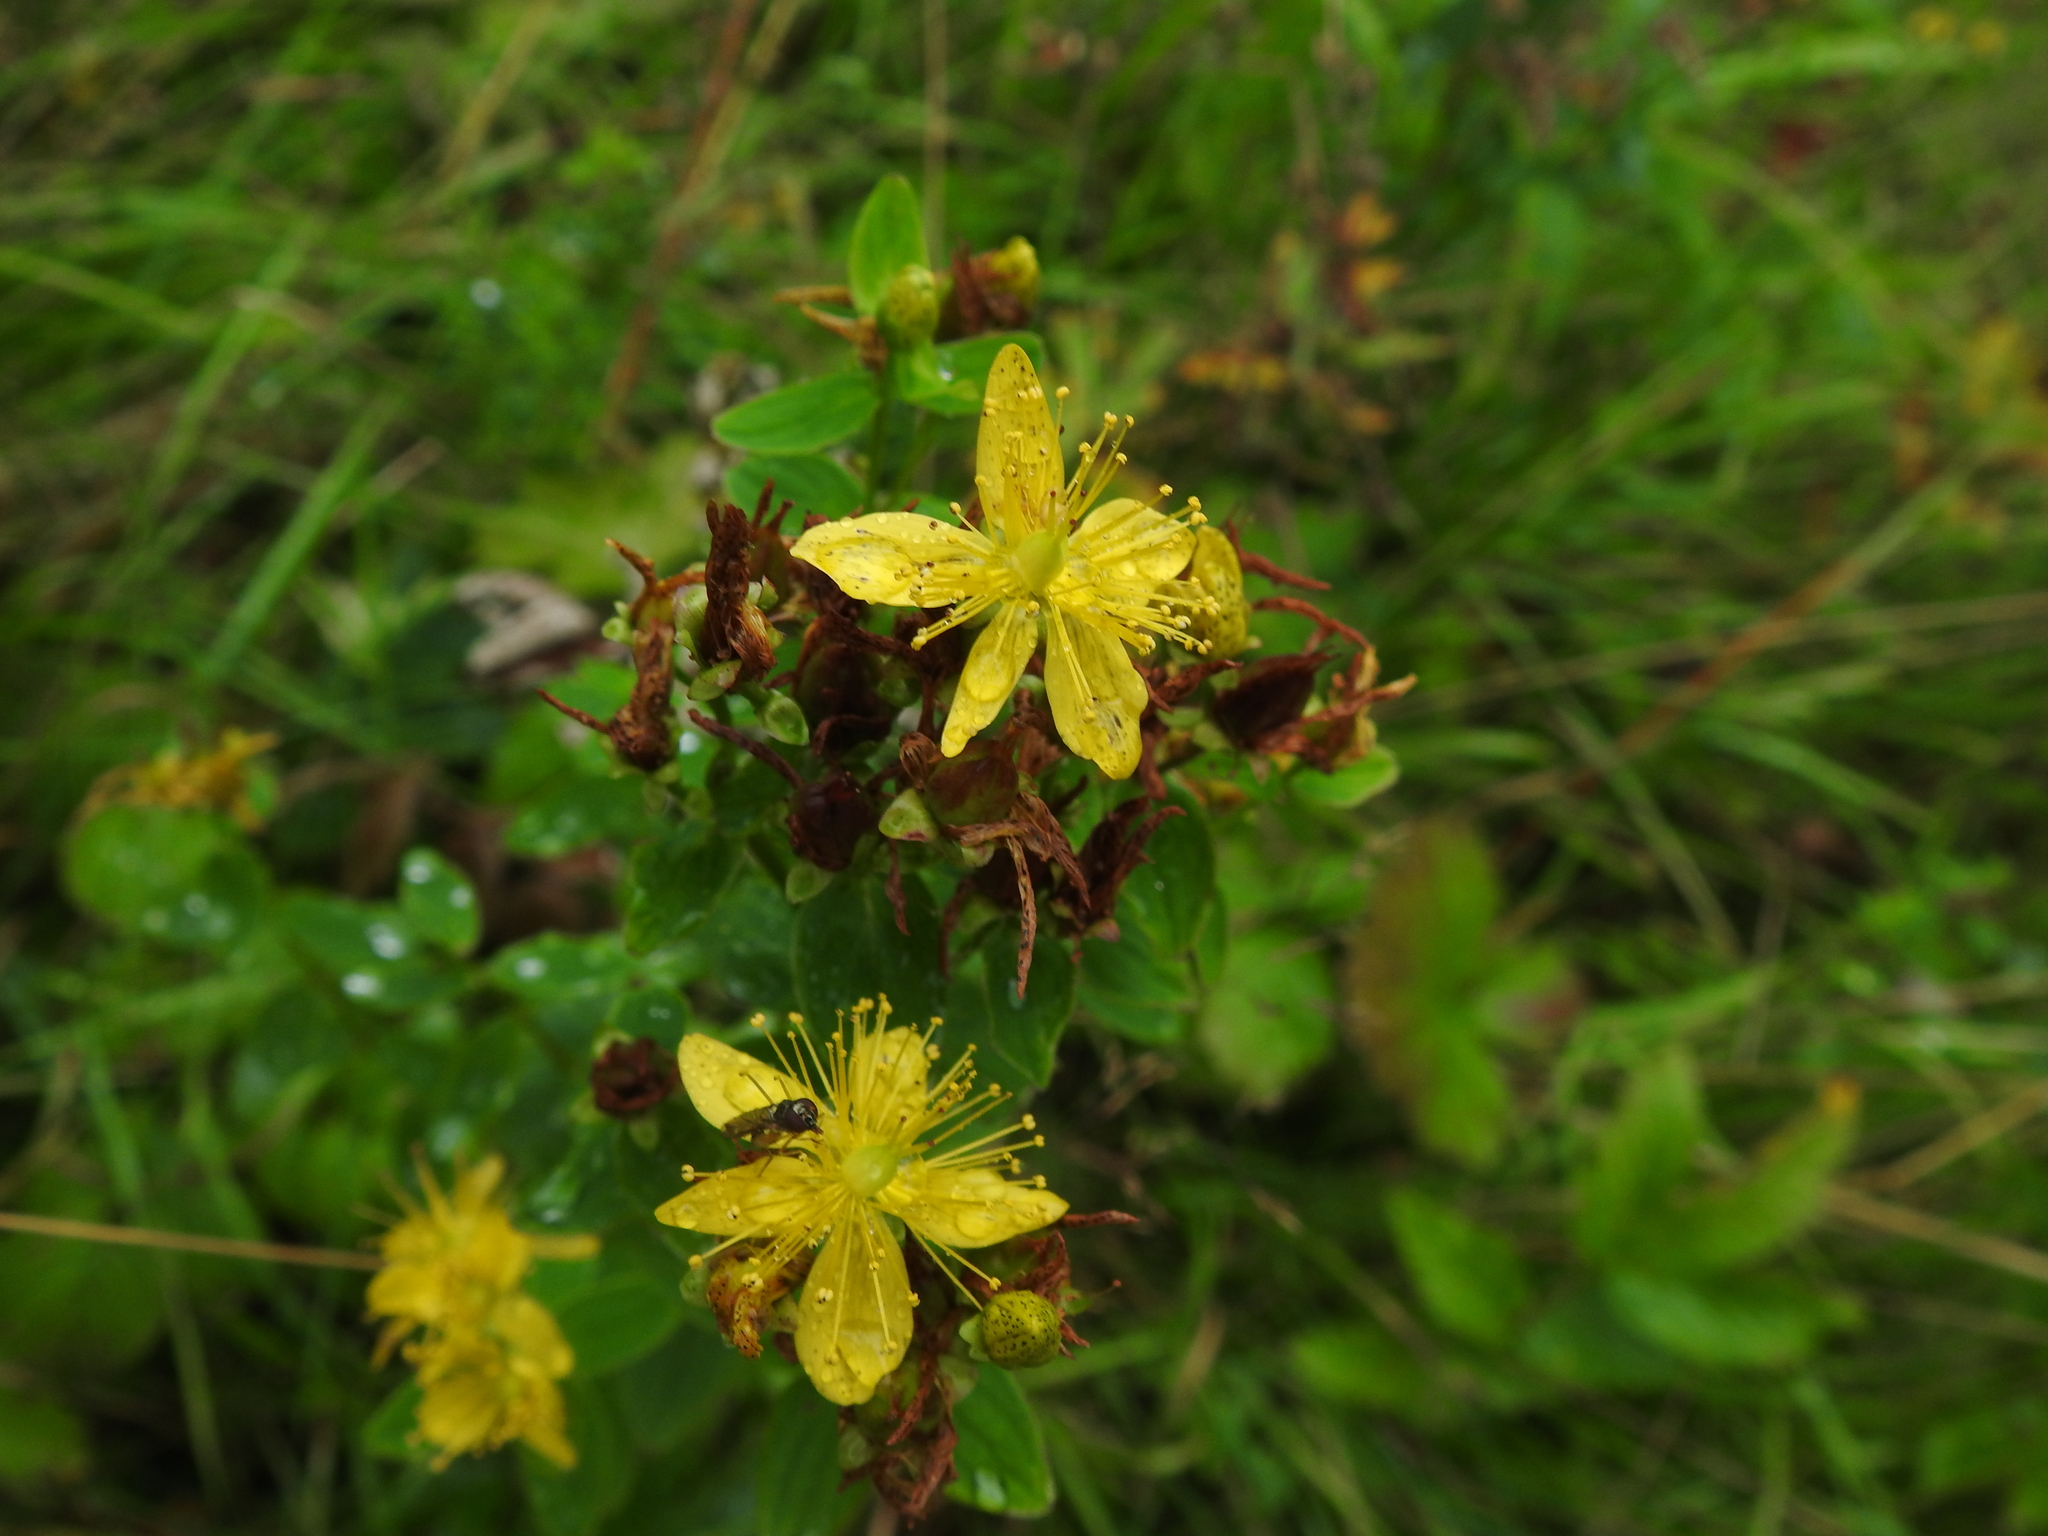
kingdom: Plantae
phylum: Tracheophyta
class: Magnoliopsida
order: Malpighiales
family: Hypericaceae
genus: Hypericum
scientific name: Hypericum maculatum
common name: Imperforate st. john's-wort
